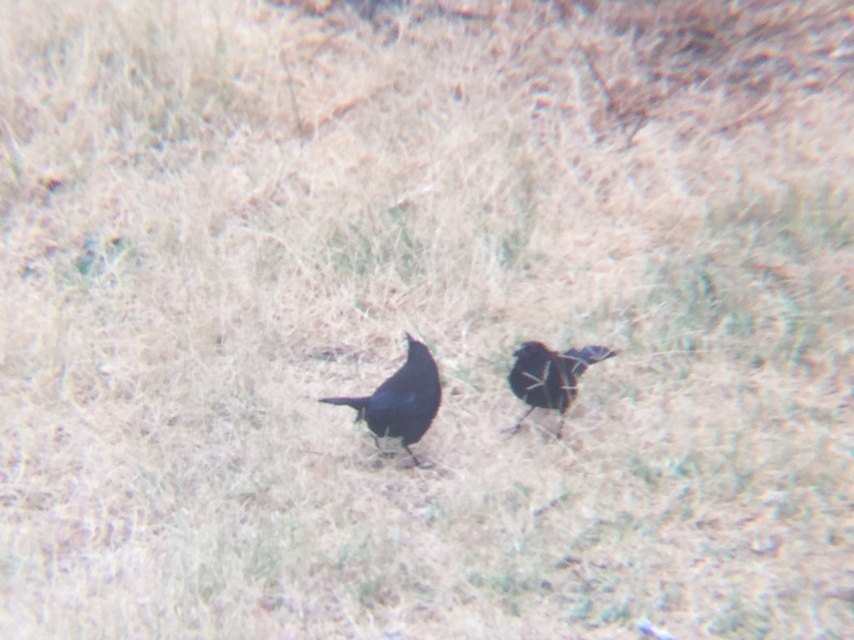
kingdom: Animalia
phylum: Chordata
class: Aves
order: Passeriformes
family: Icteridae
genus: Molothrus
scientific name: Molothrus aeneus
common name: Bronzed cowbird
